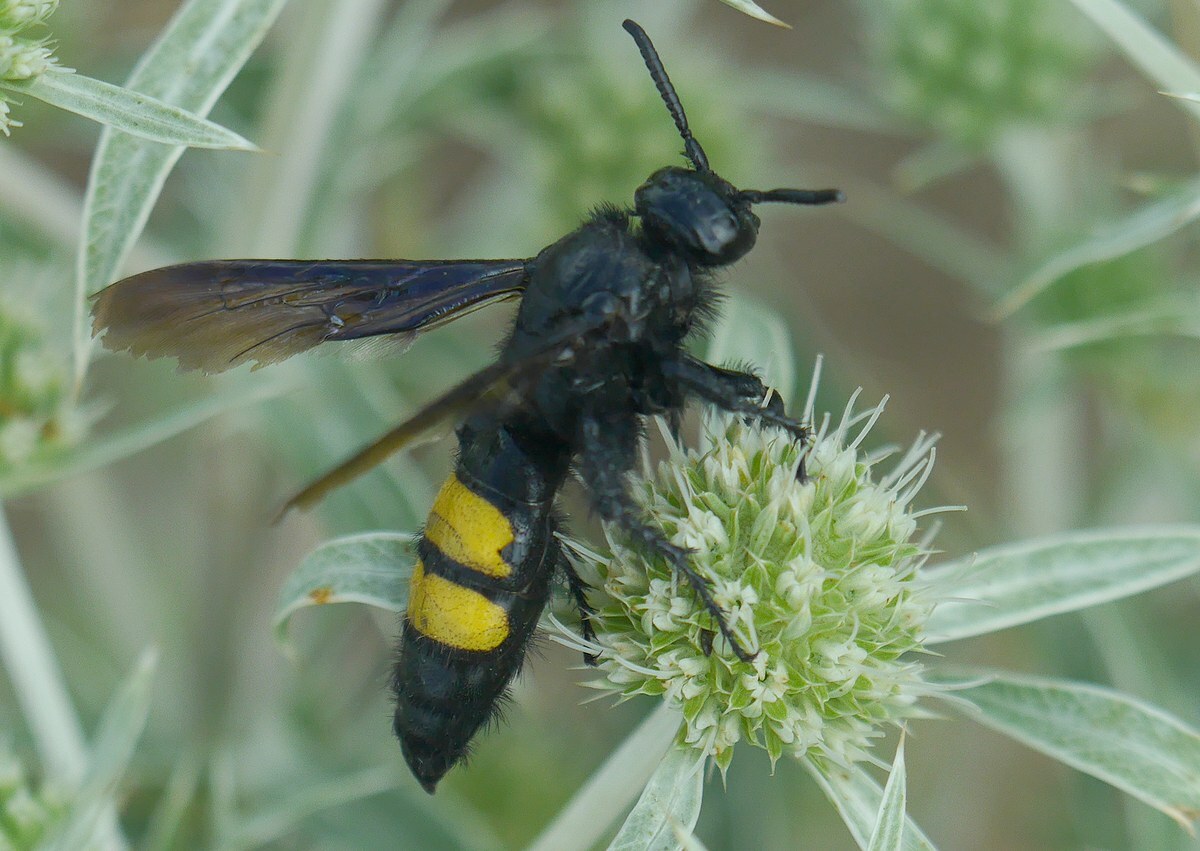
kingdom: Animalia
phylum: Arthropoda
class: Insecta
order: Hymenoptera
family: Scoliidae
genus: Scolia
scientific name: Scolia hirta
